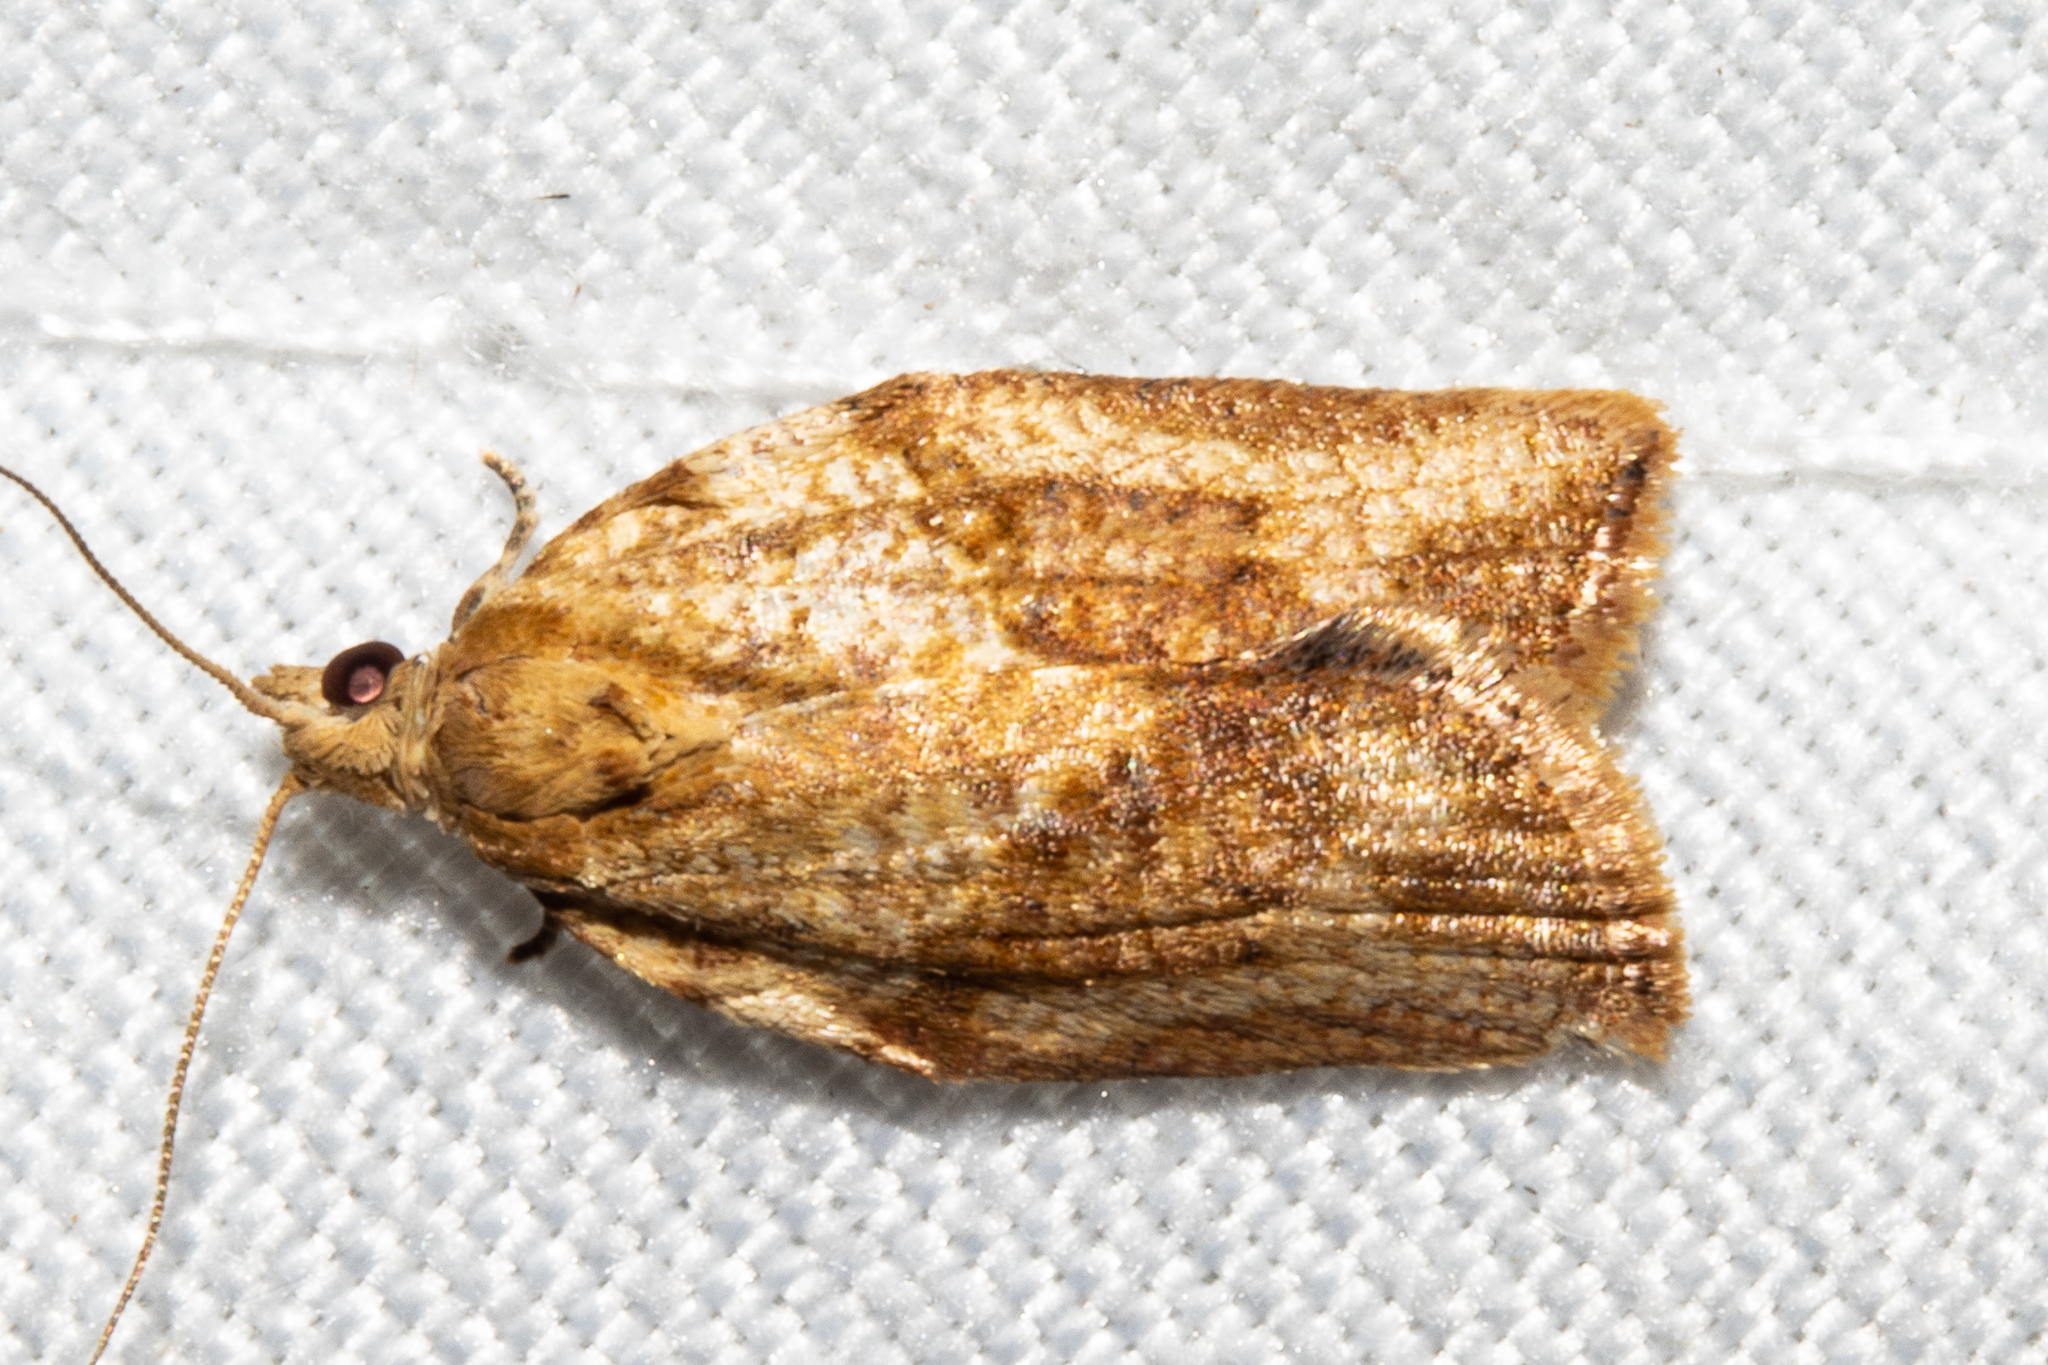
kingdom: Animalia
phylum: Arthropoda
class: Insecta
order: Lepidoptera
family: Tortricidae
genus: Epiphyas
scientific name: Epiphyas postvittana
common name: Light brown apple moth
